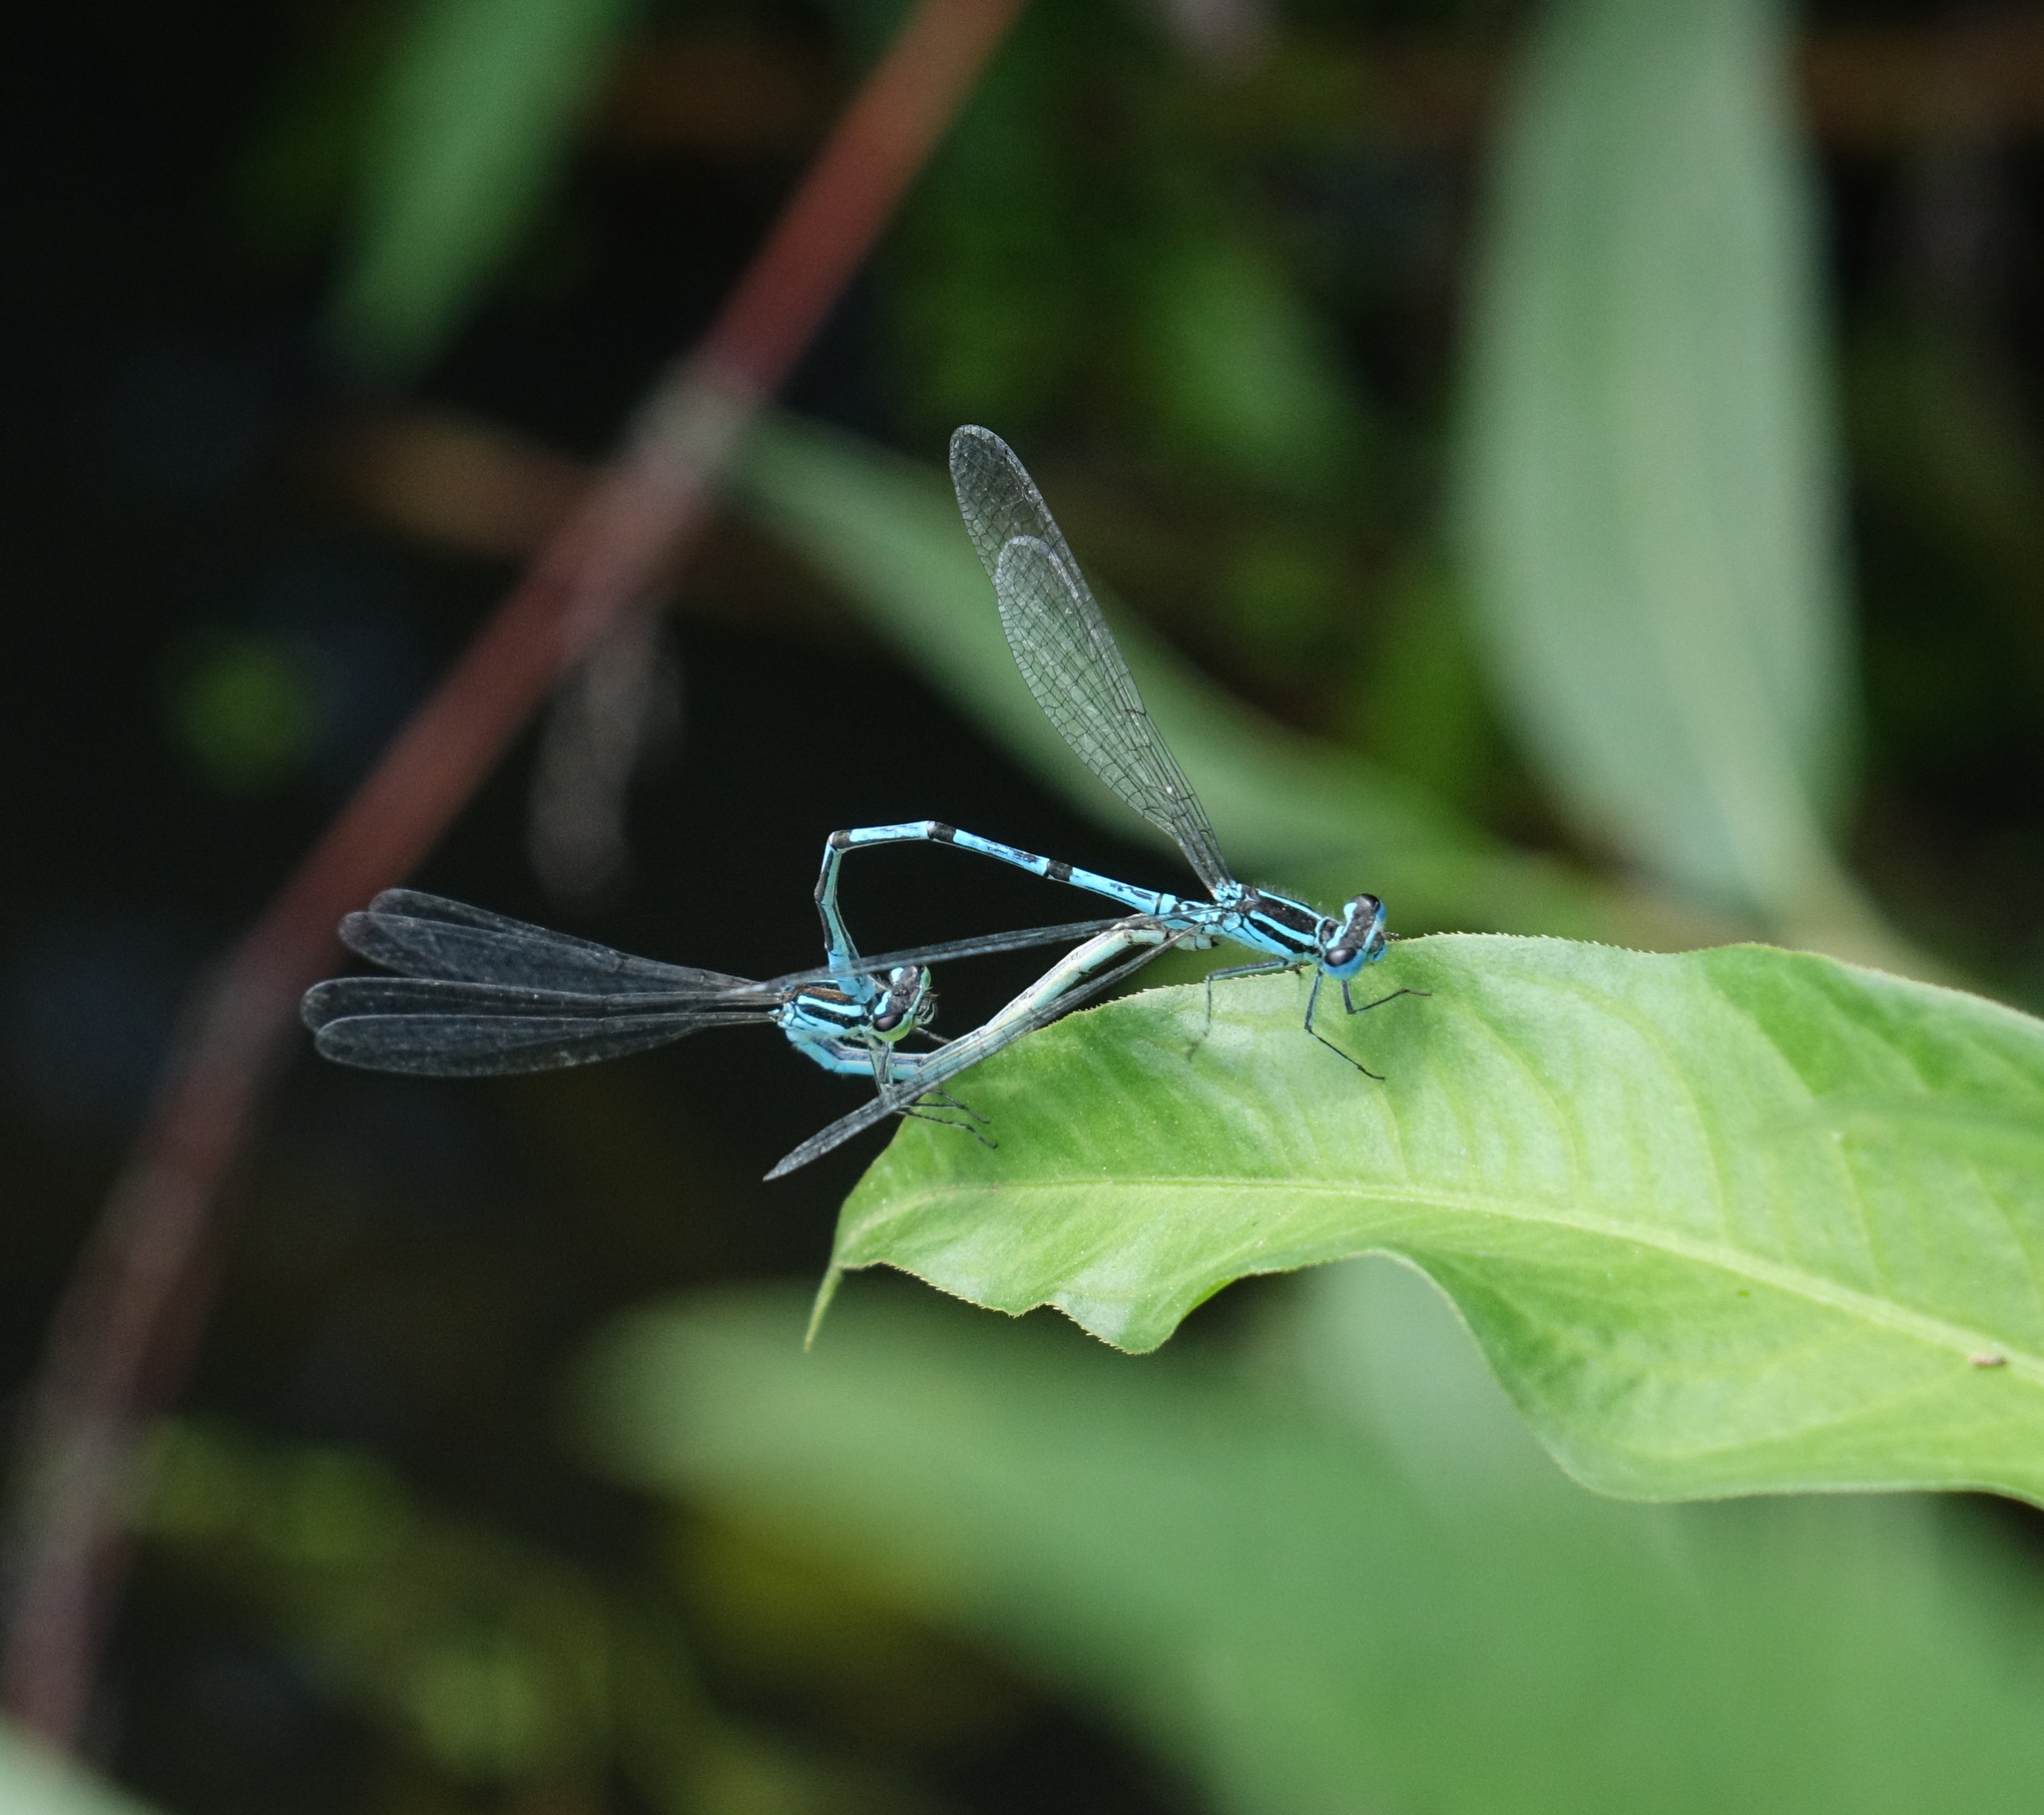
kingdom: Animalia
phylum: Arthropoda
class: Insecta
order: Odonata
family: Coenagrionidae
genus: Coenagrion
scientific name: Coenagrion puella
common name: Azure damselfly
